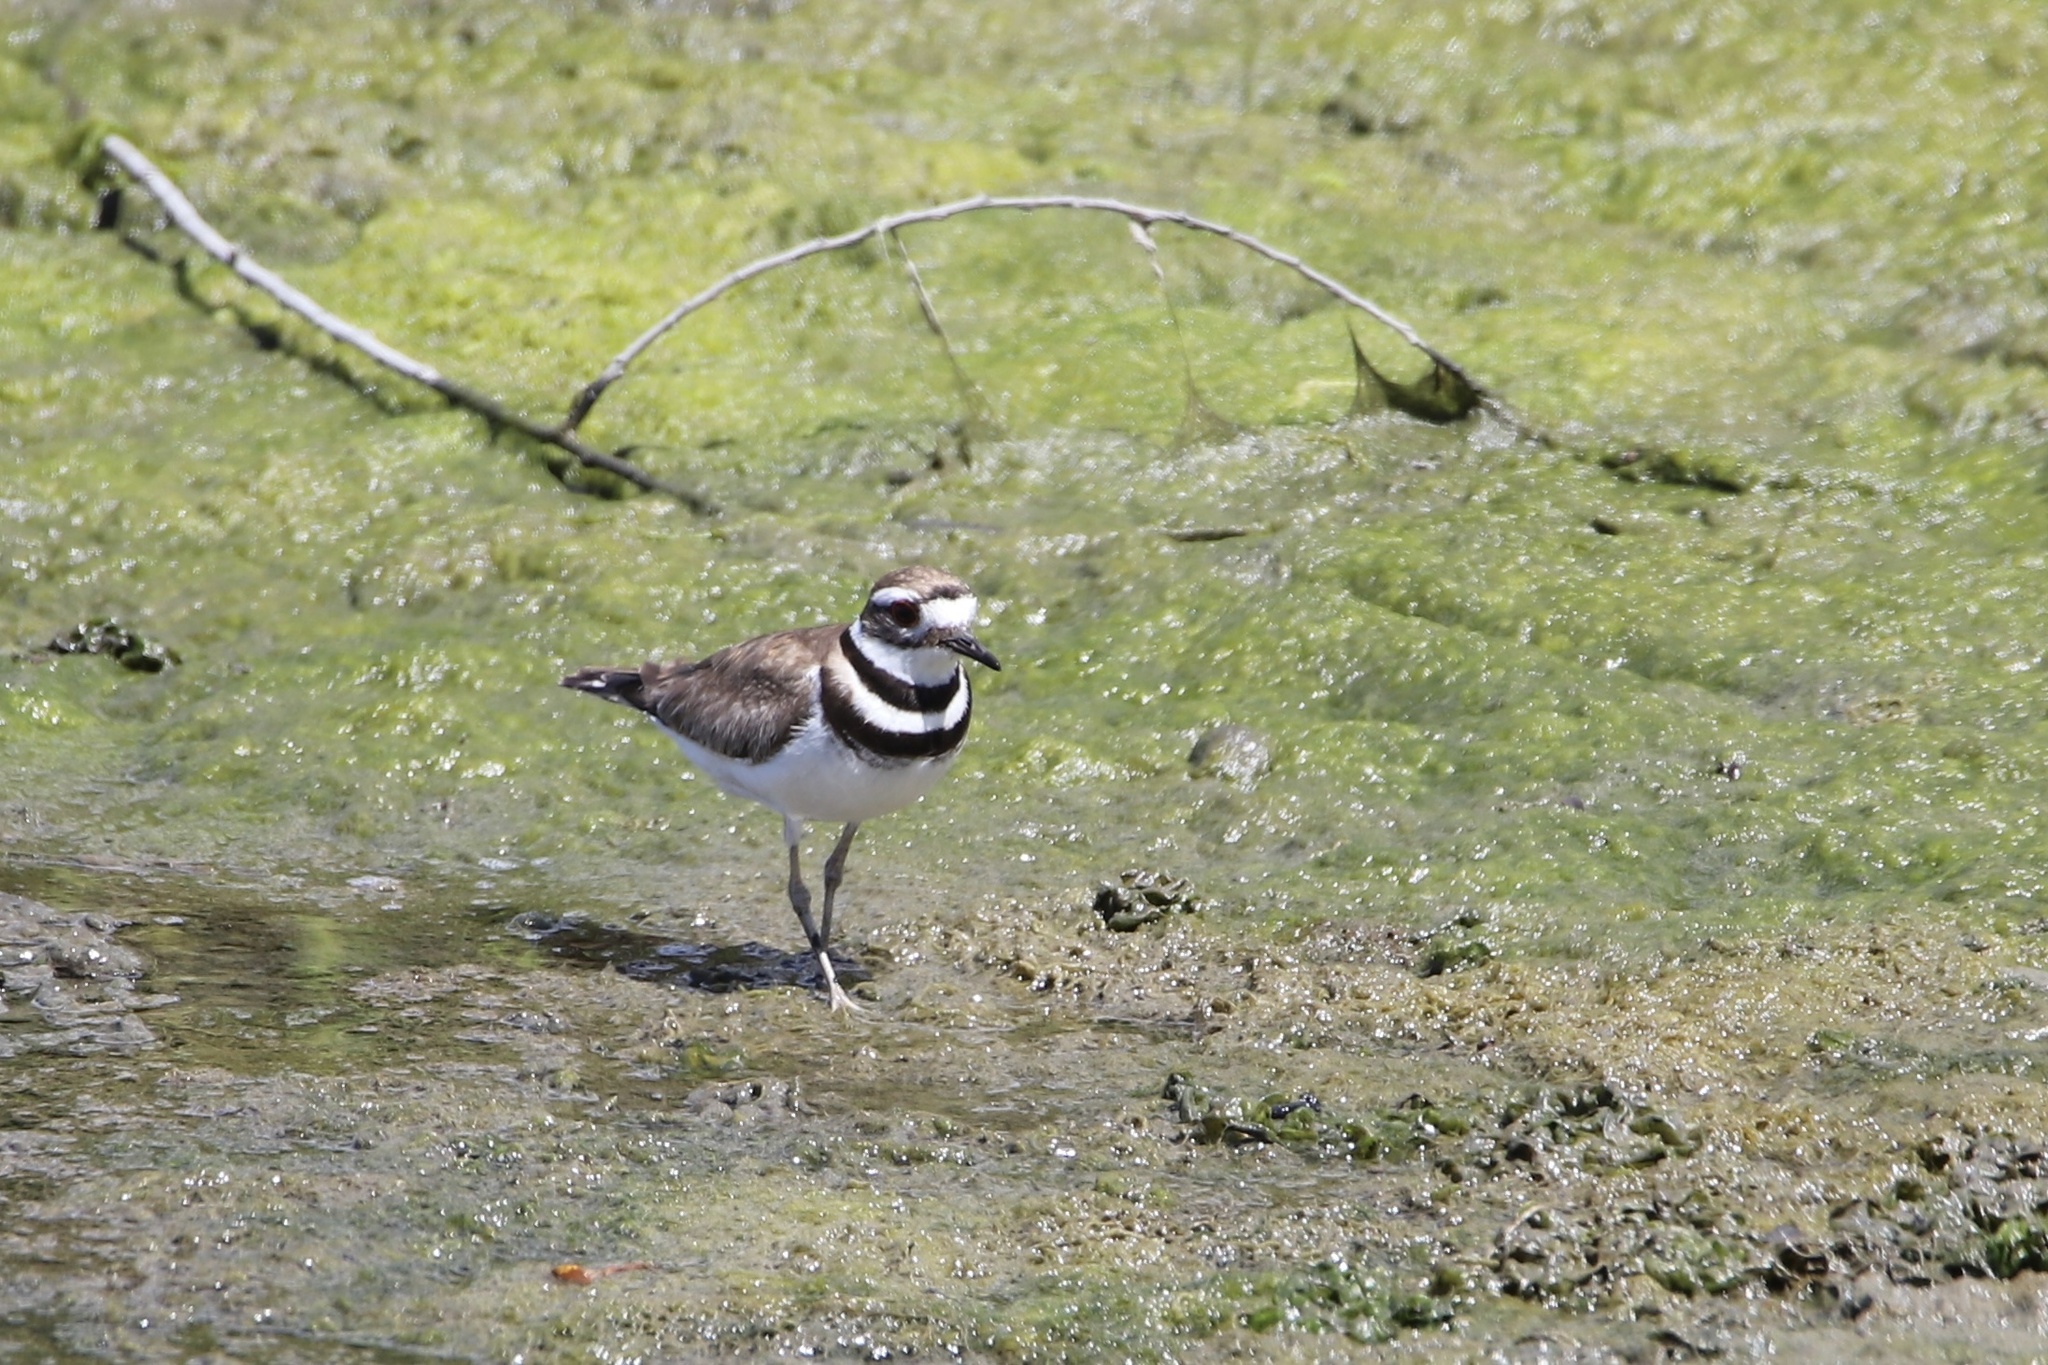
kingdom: Animalia
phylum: Chordata
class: Aves
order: Charadriiformes
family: Charadriidae
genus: Charadrius
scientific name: Charadrius vociferus
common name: Killdeer
